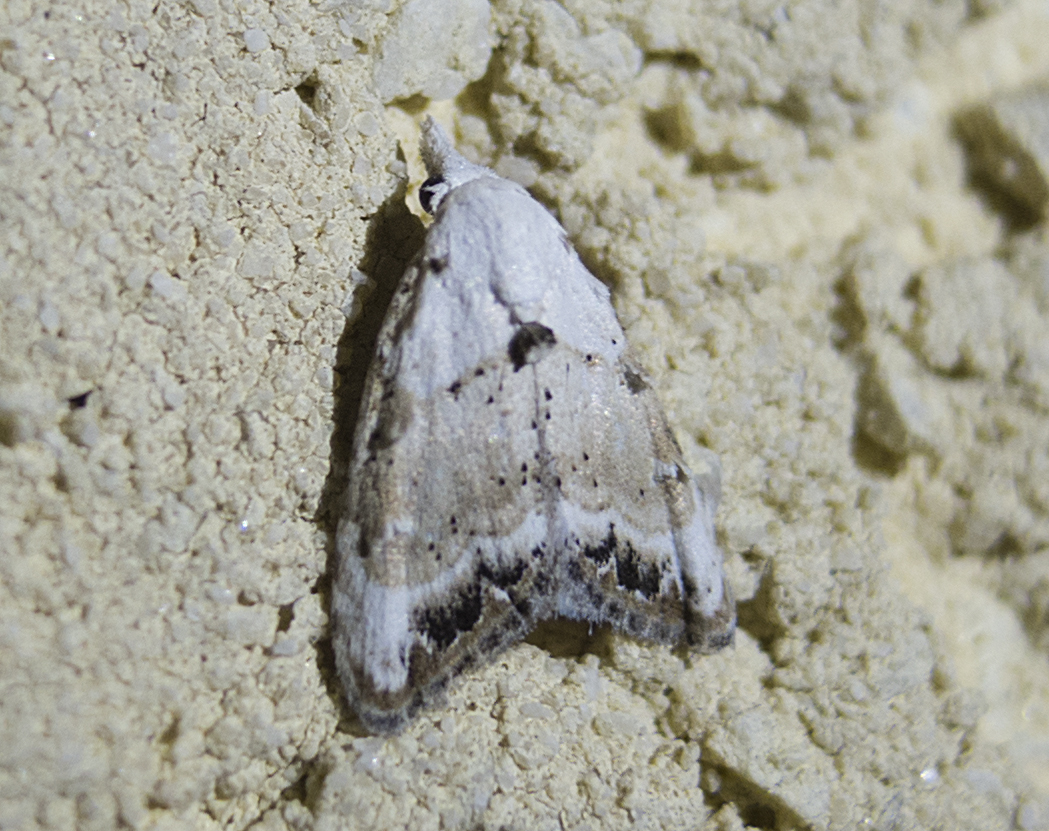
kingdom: Animalia
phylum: Arthropoda
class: Insecta
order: Lepidoptera
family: Nolidae
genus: Nola
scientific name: Nola chlamitulalis
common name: Jersey black arches
